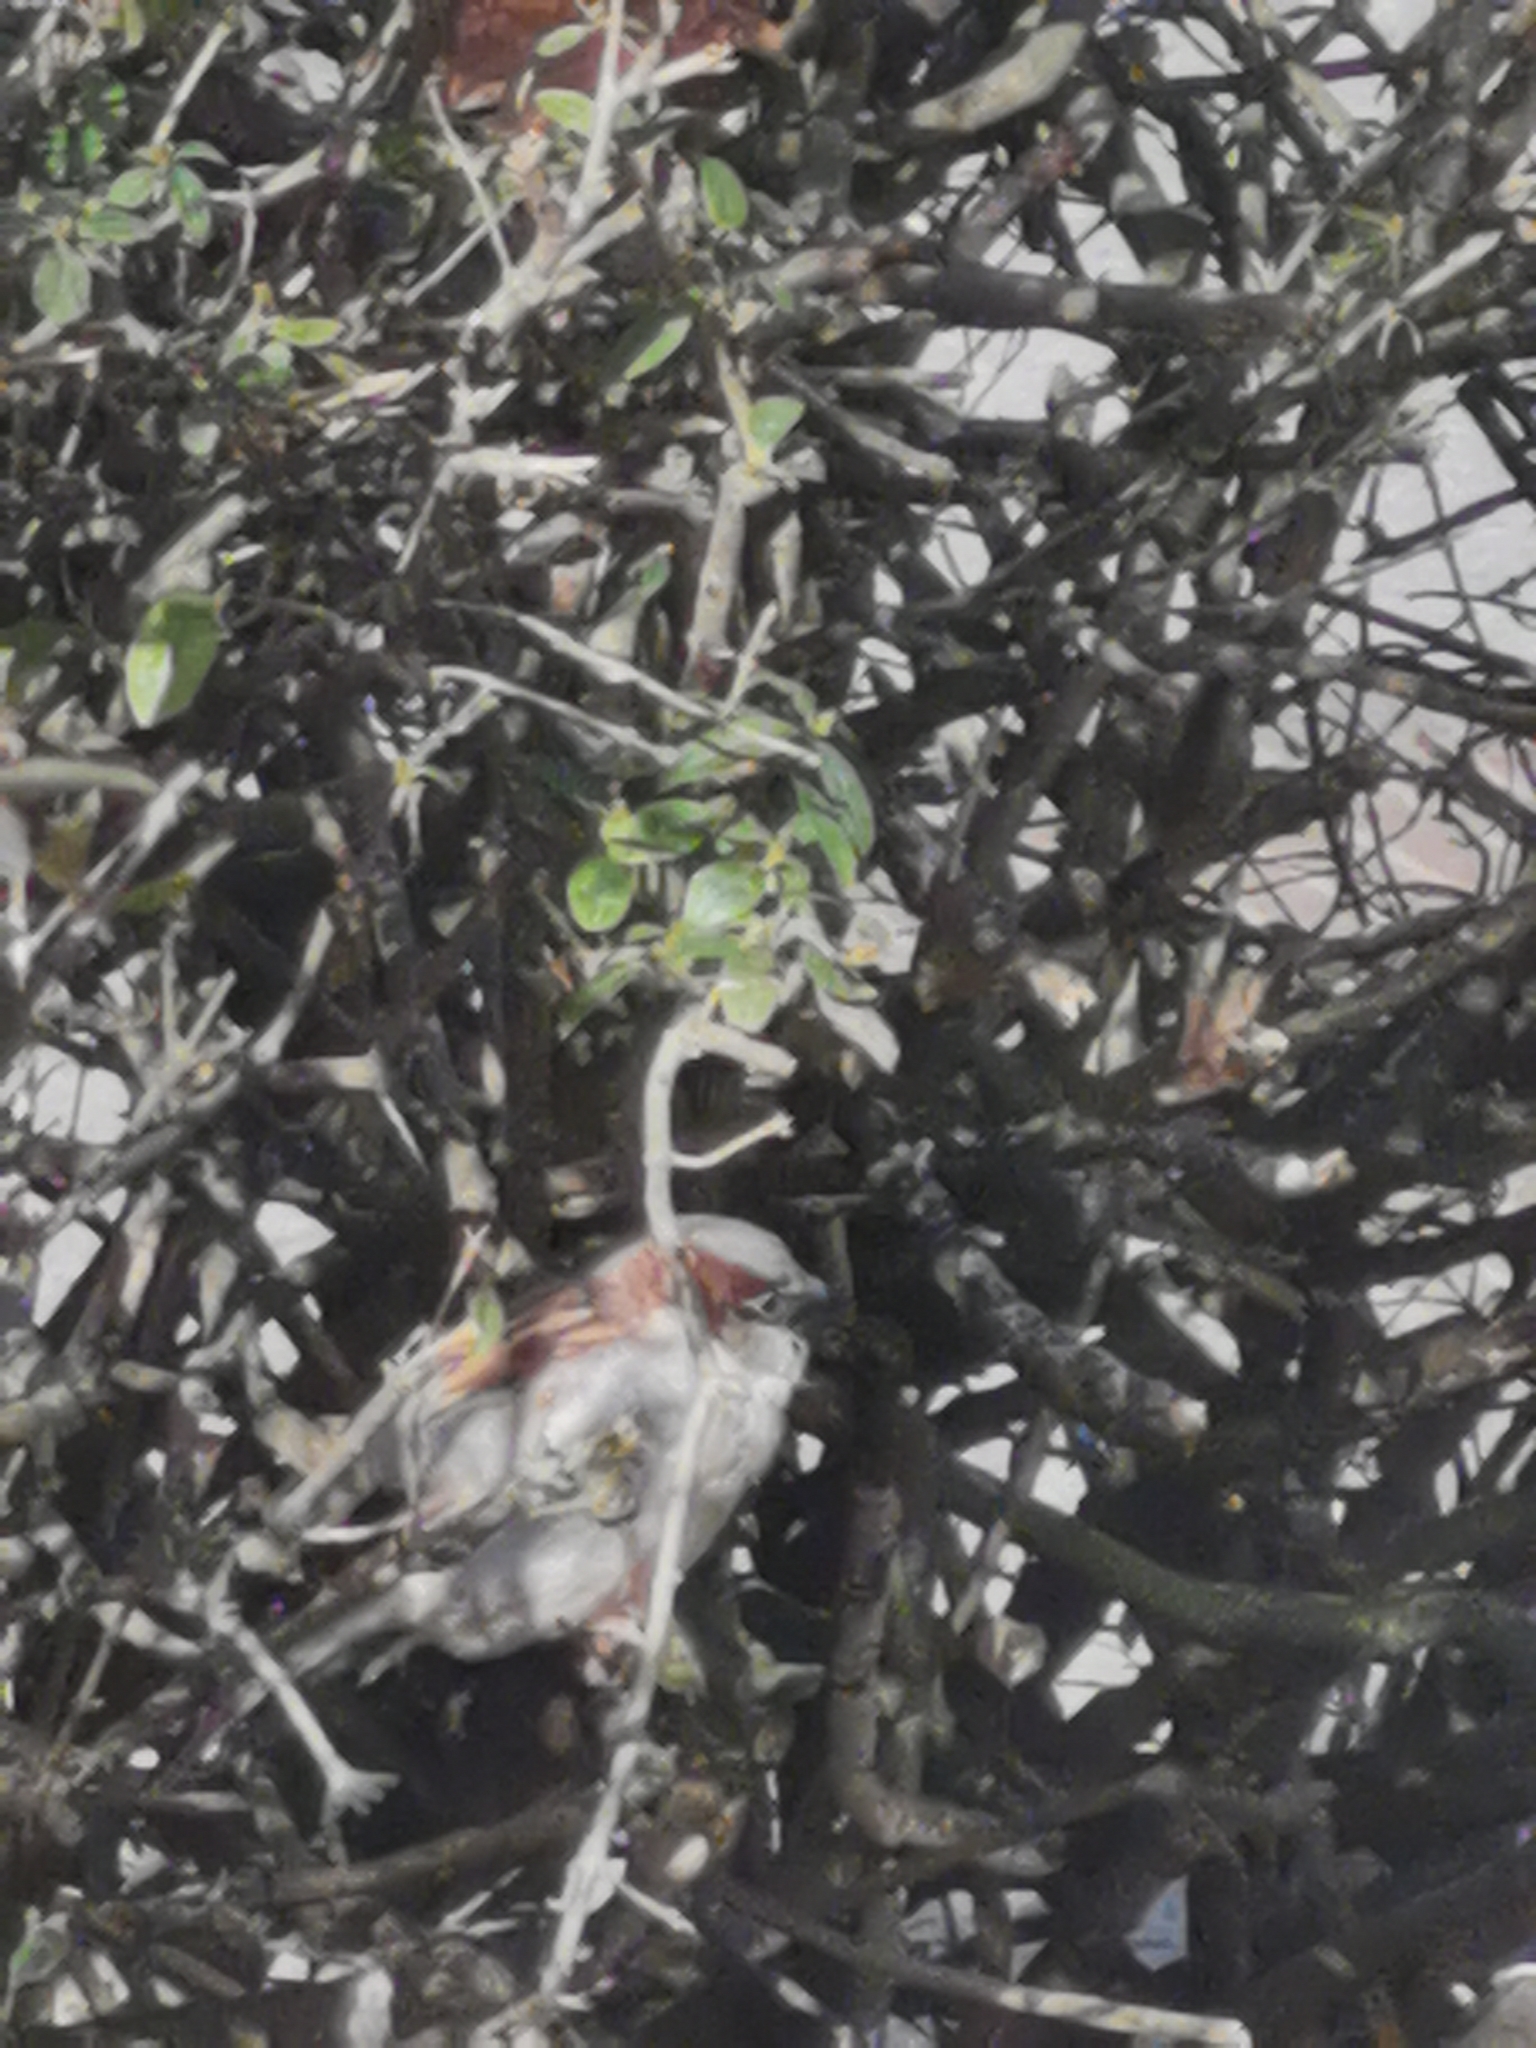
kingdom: Animalia
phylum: Chordata
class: Aves
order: Passeriformes
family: Passeridae
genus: Passer
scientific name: Passer domesticus
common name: House sparrow
